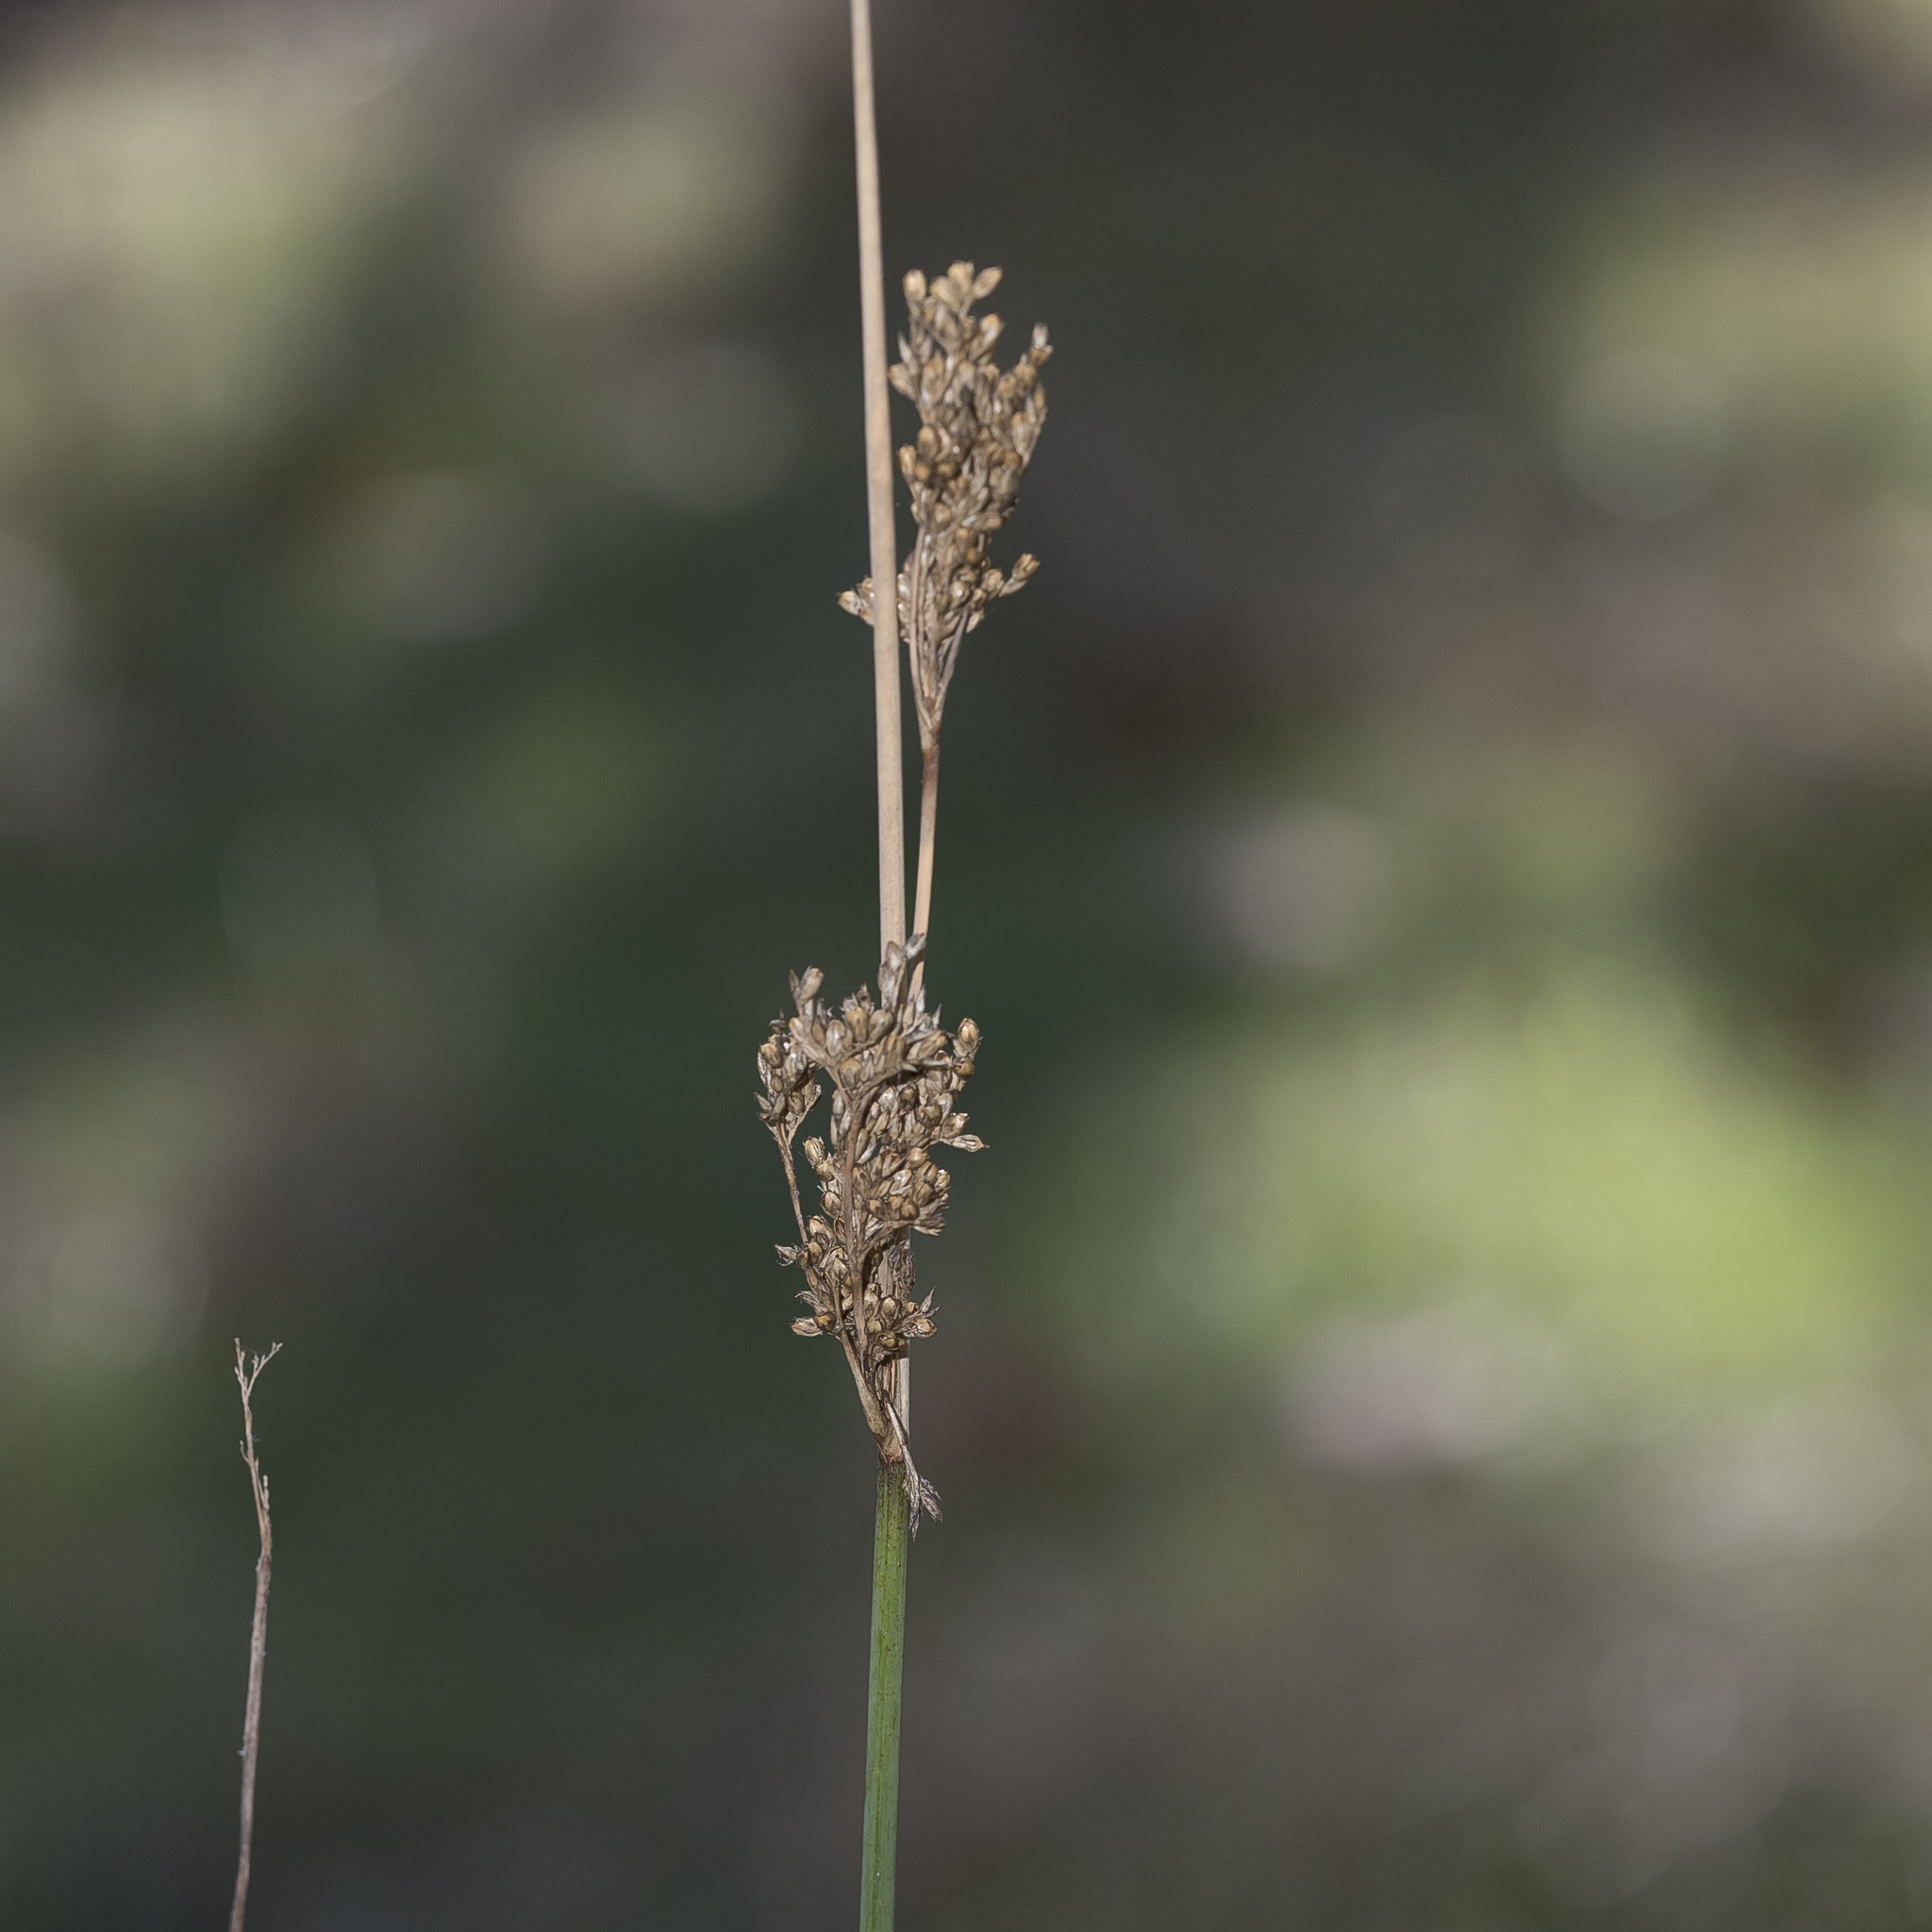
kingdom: Plantae
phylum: Tracheophyta
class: Liliopsida
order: Poales
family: Juncaceae
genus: Juncus
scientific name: Juncus pallidus
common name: Great soft-rush
